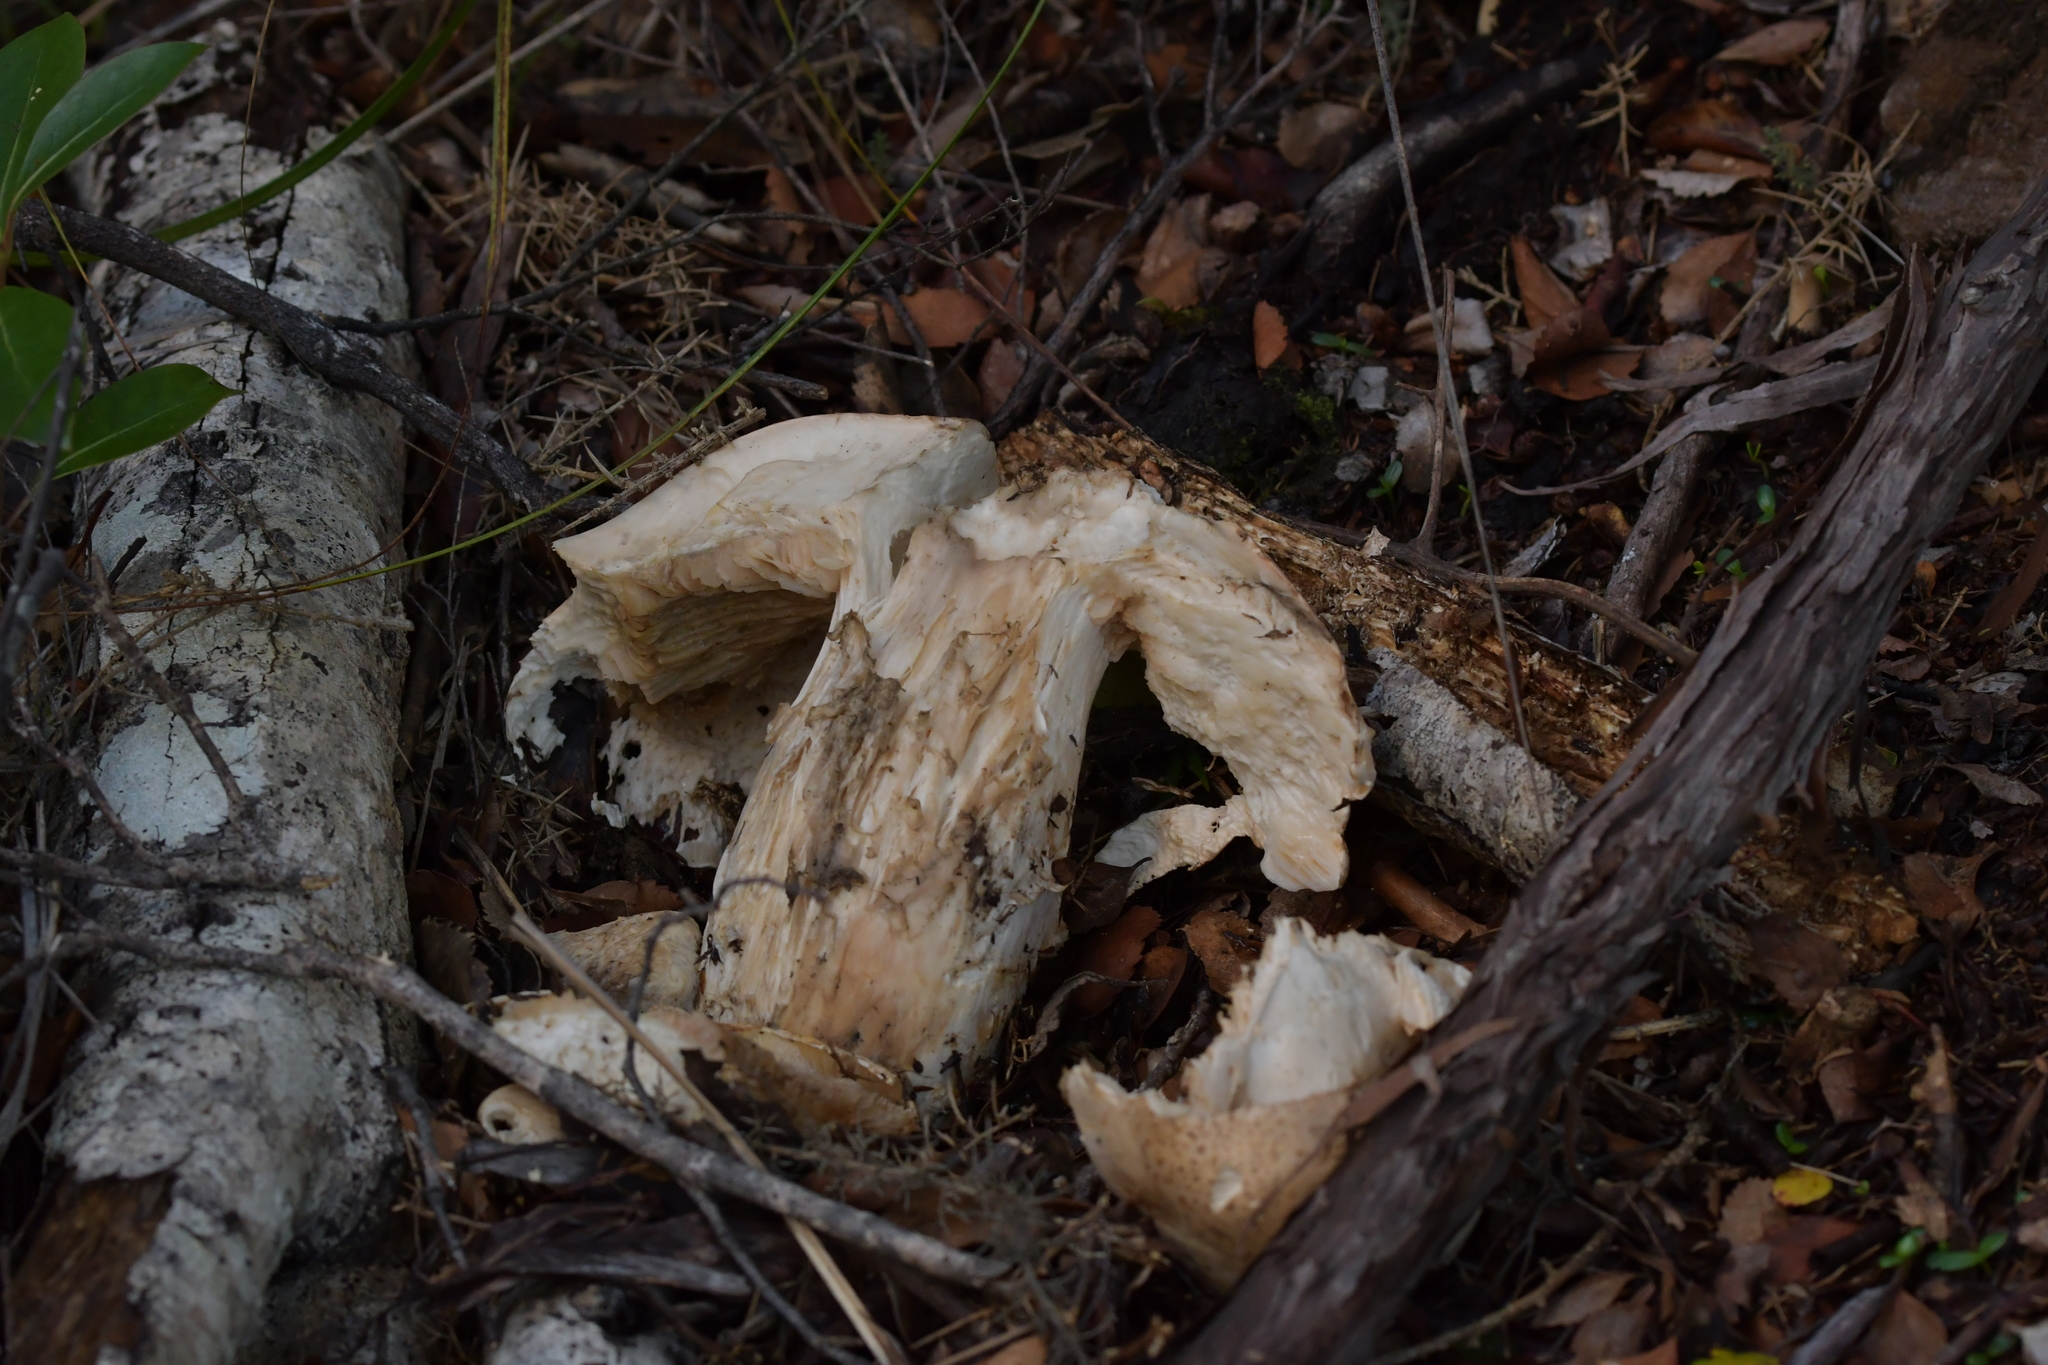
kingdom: Fungi
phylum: Basidiomycota
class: Agaricomycetes
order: Agaricales
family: Cortinariaceae
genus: Austrocortinarius
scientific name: Austrocortinarius australiensis
